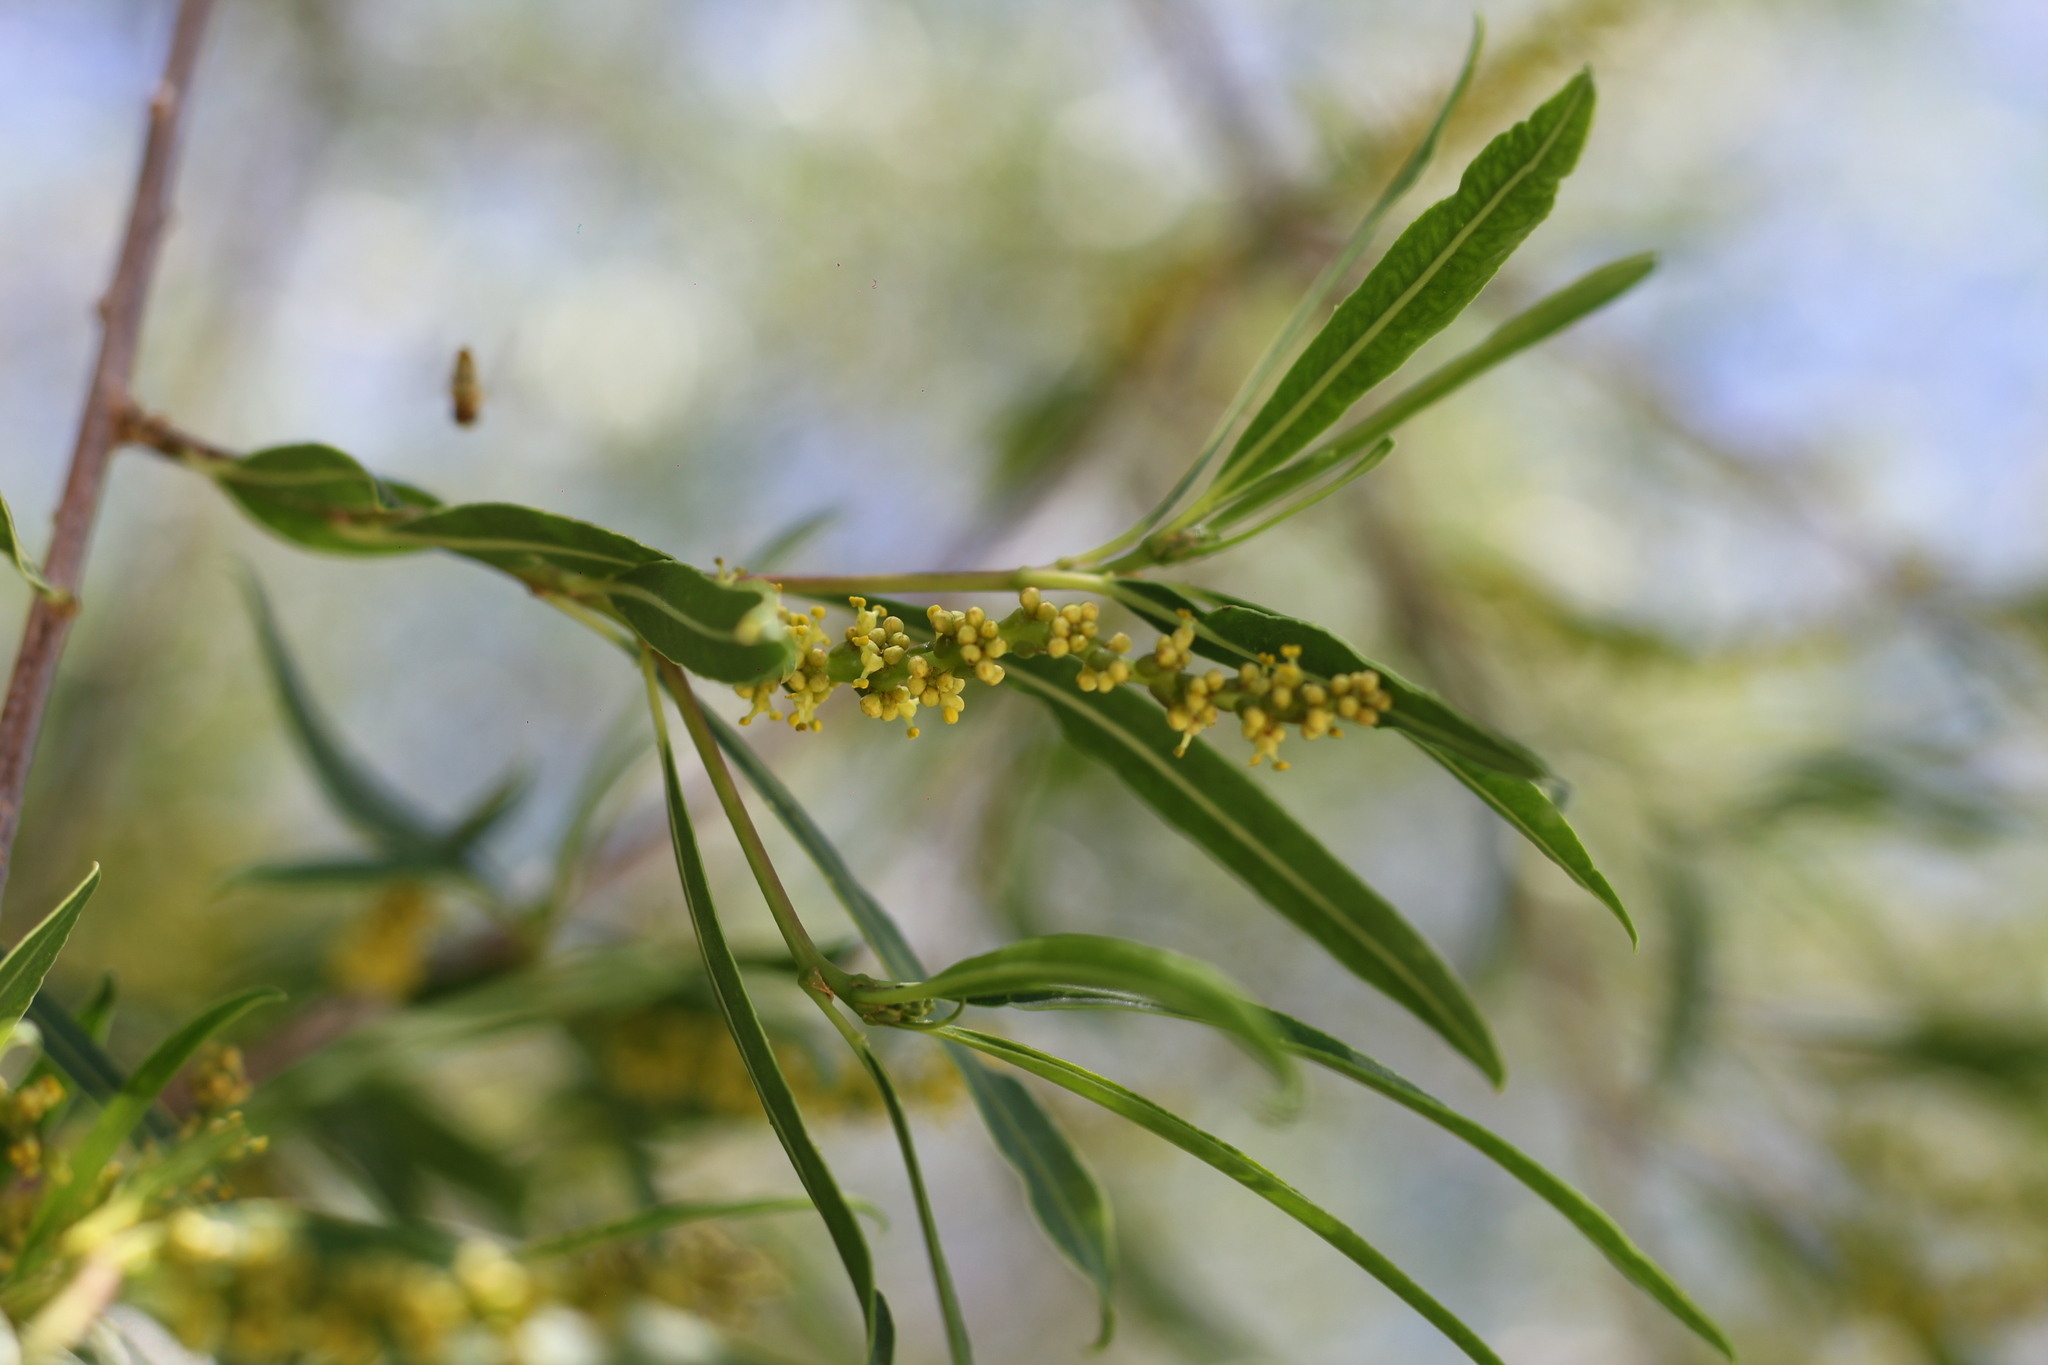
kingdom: Plantae
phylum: Tracheophyta
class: Magnoliopsida
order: Malpighiales
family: Euphorbiaceae
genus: Sapium
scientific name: Sapium haematospermum
